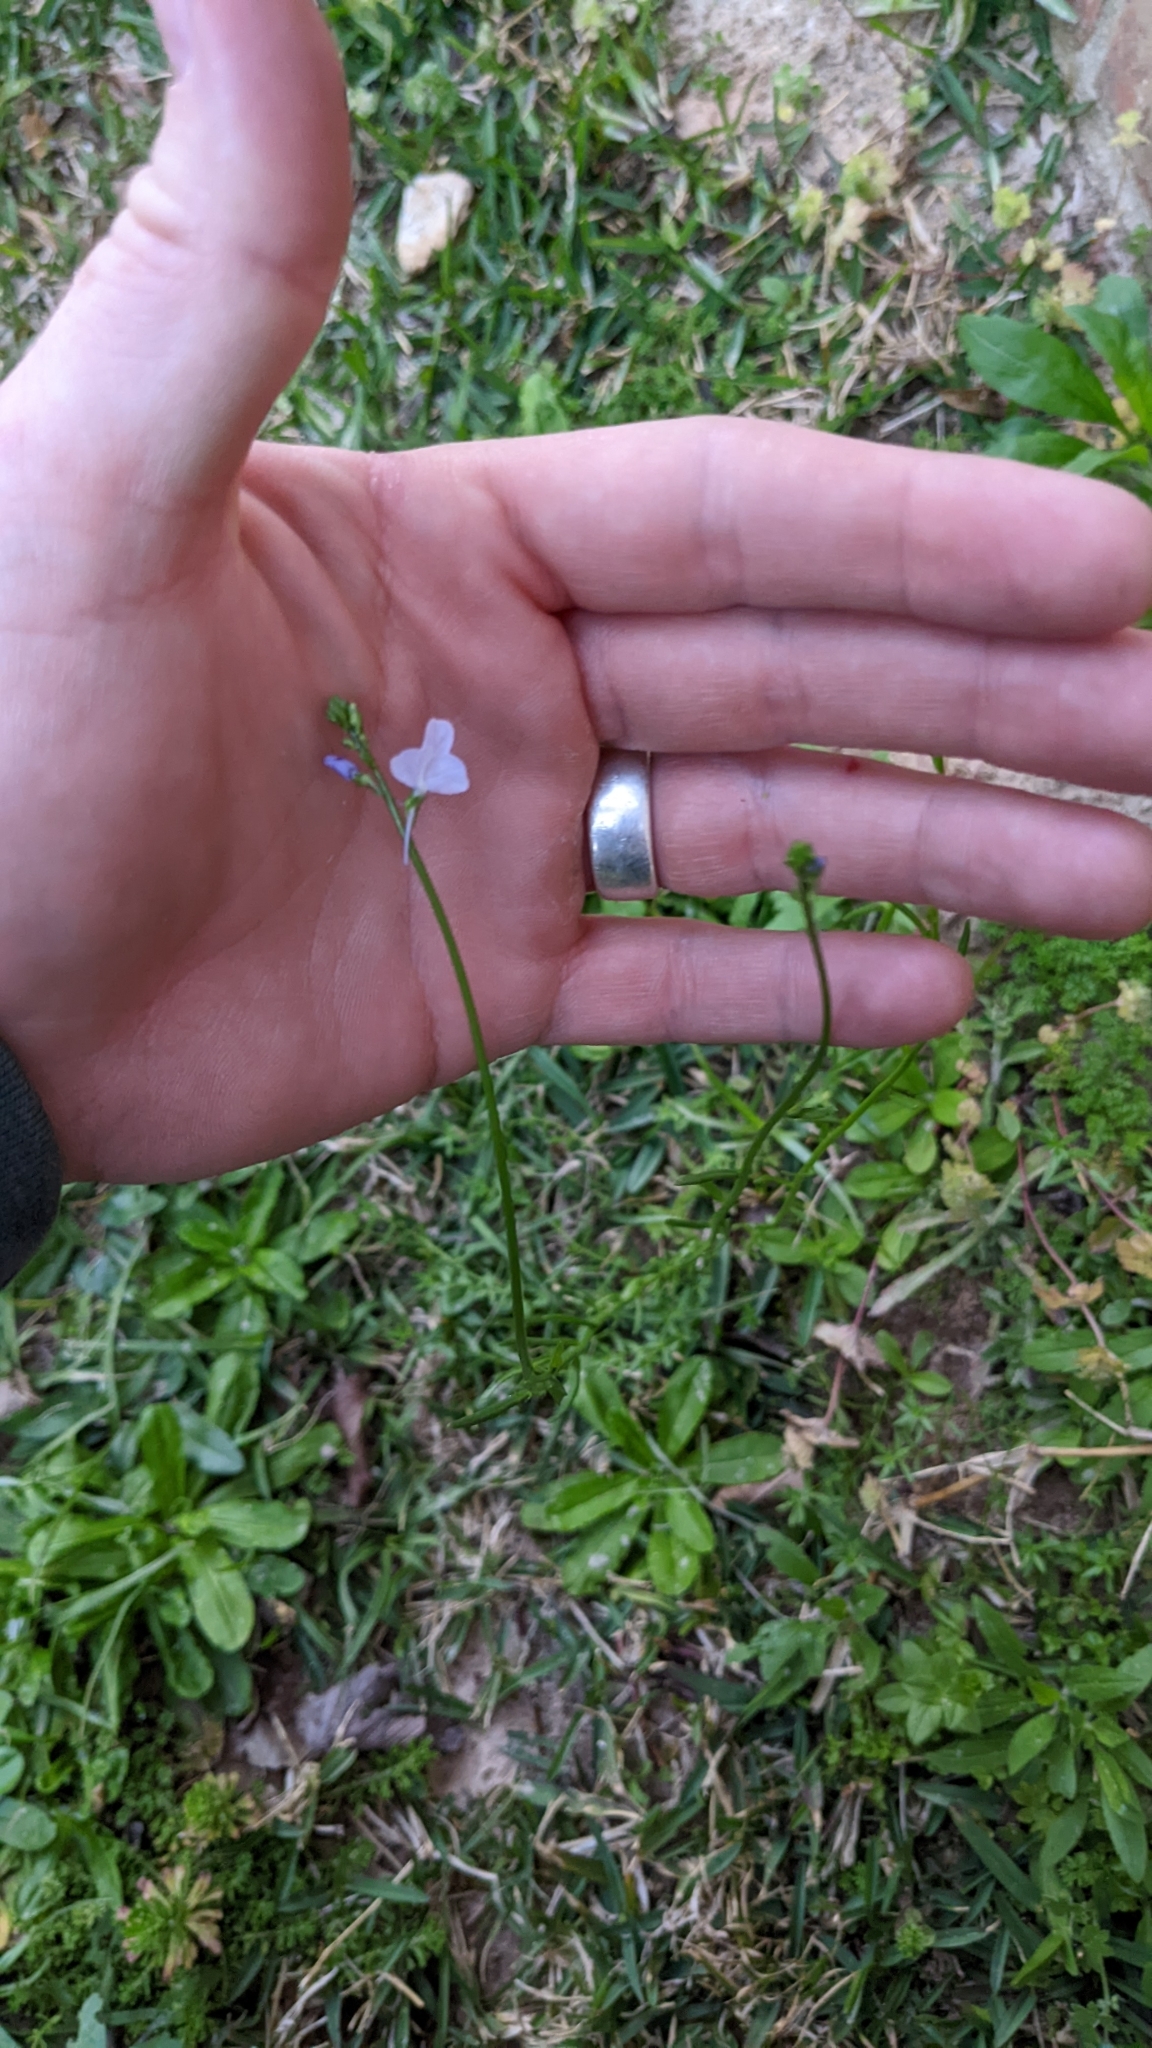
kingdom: Plantae
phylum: Tracheophyta
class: Magnoliopsida
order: Lamiales
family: Plantaginaceae
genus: Nuttallanthus
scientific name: Nuttallanthus texanus
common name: Texas toadflax
